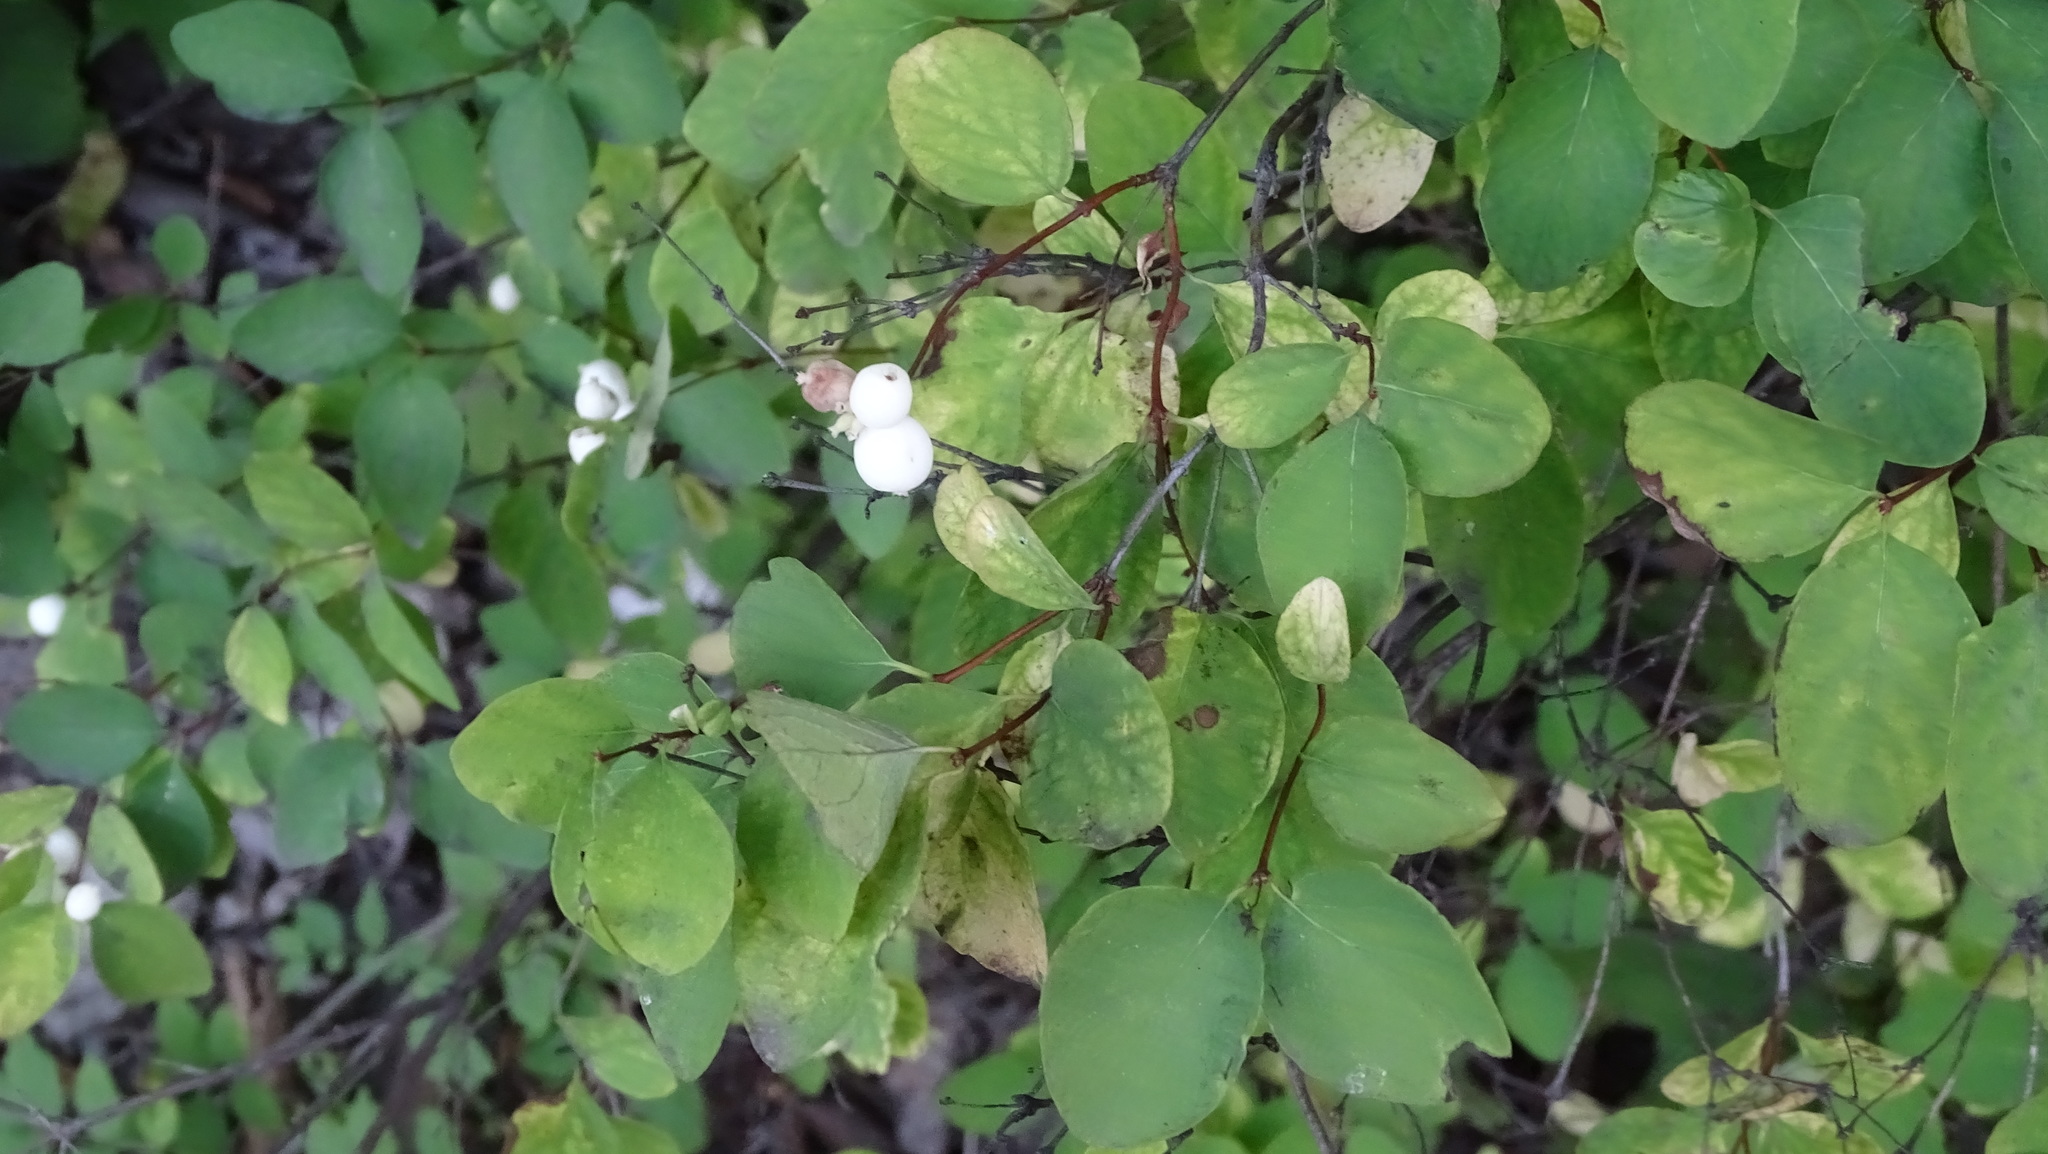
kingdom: Plantae
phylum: Tracheophyta
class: Magnoliopsida
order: Dipsacales
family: Caprifoliaceae
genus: Symphoricarpos
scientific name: Symphoricarpos albus
